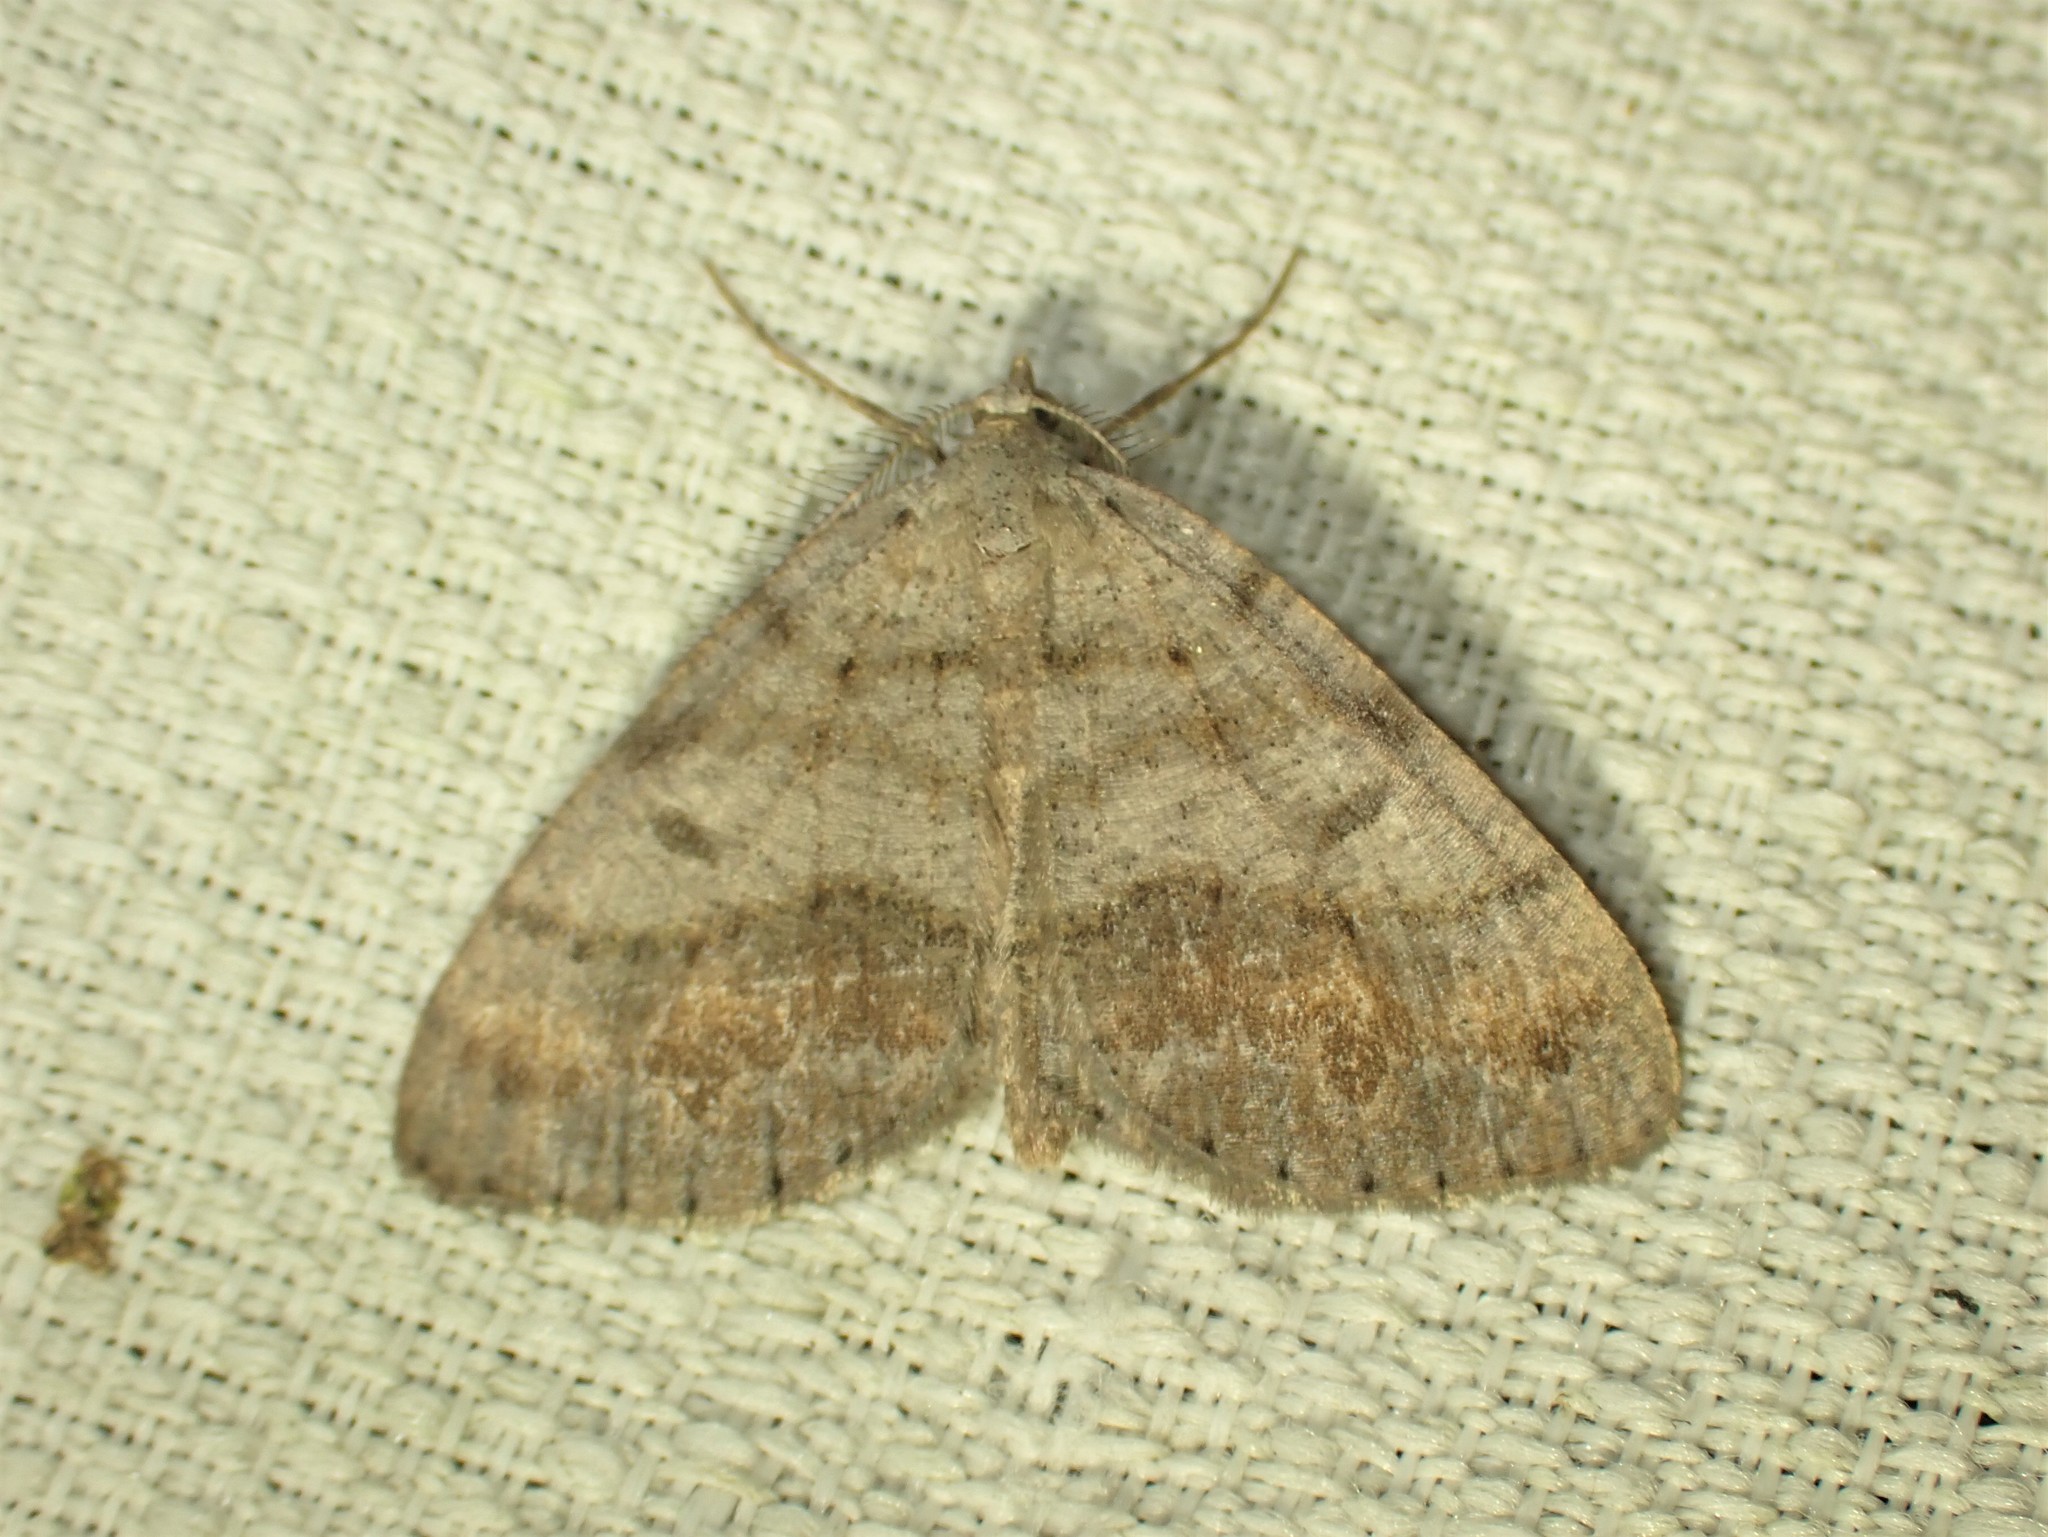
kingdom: Animalia
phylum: Arthropoda
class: Insecta
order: Lepidoptera
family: Geometridae
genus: Macaria
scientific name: Macaria loricaria
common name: False bruce spanworm
